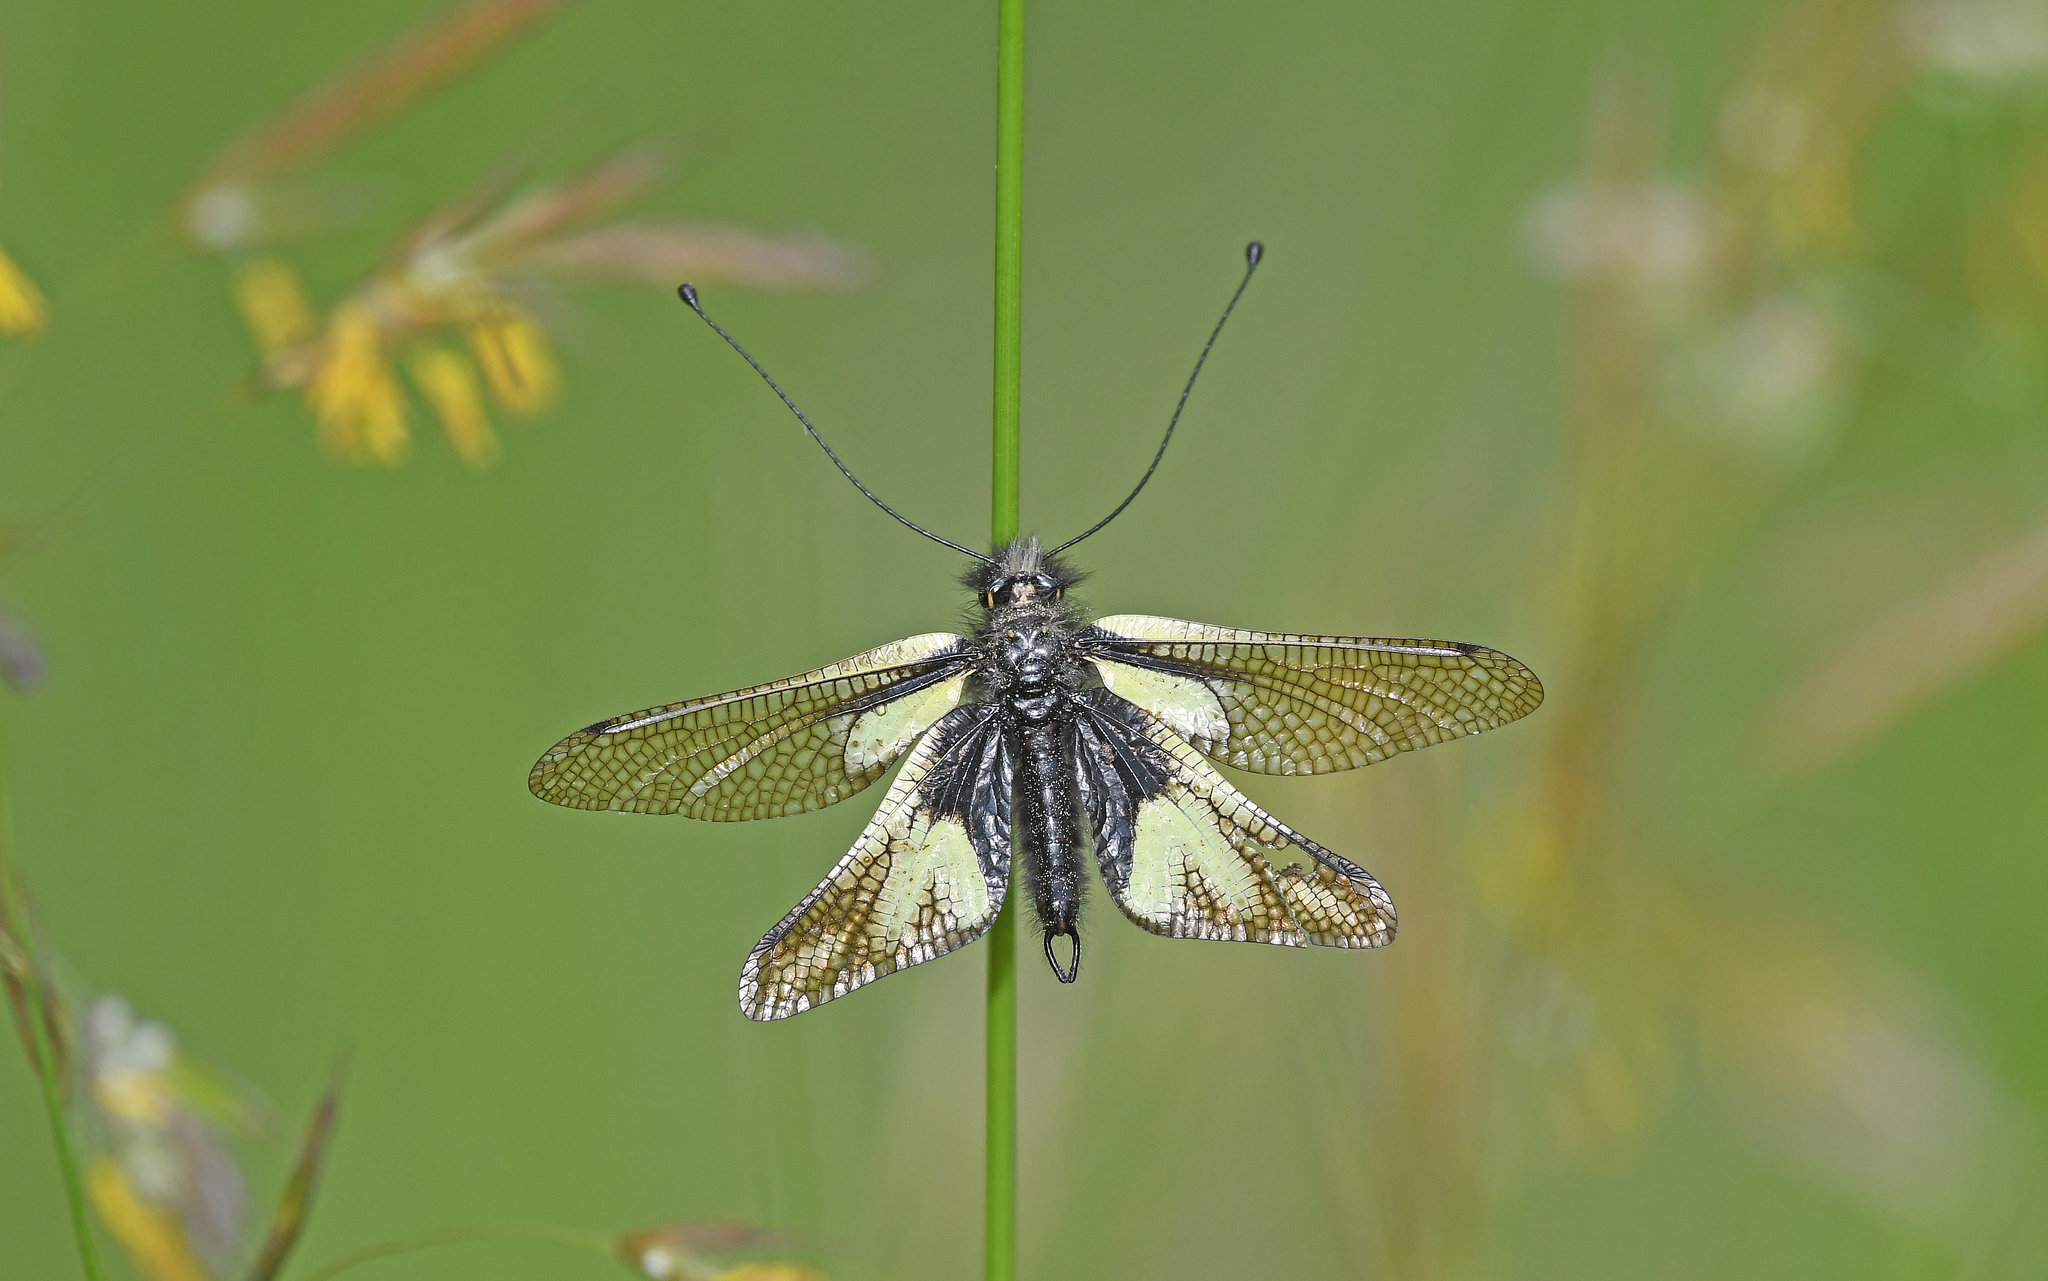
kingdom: Animalia
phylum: Arthropoda
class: Insecta
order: Neuroptera
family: Ascalaphidae
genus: Libelloides
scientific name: Libelloides coccajus
